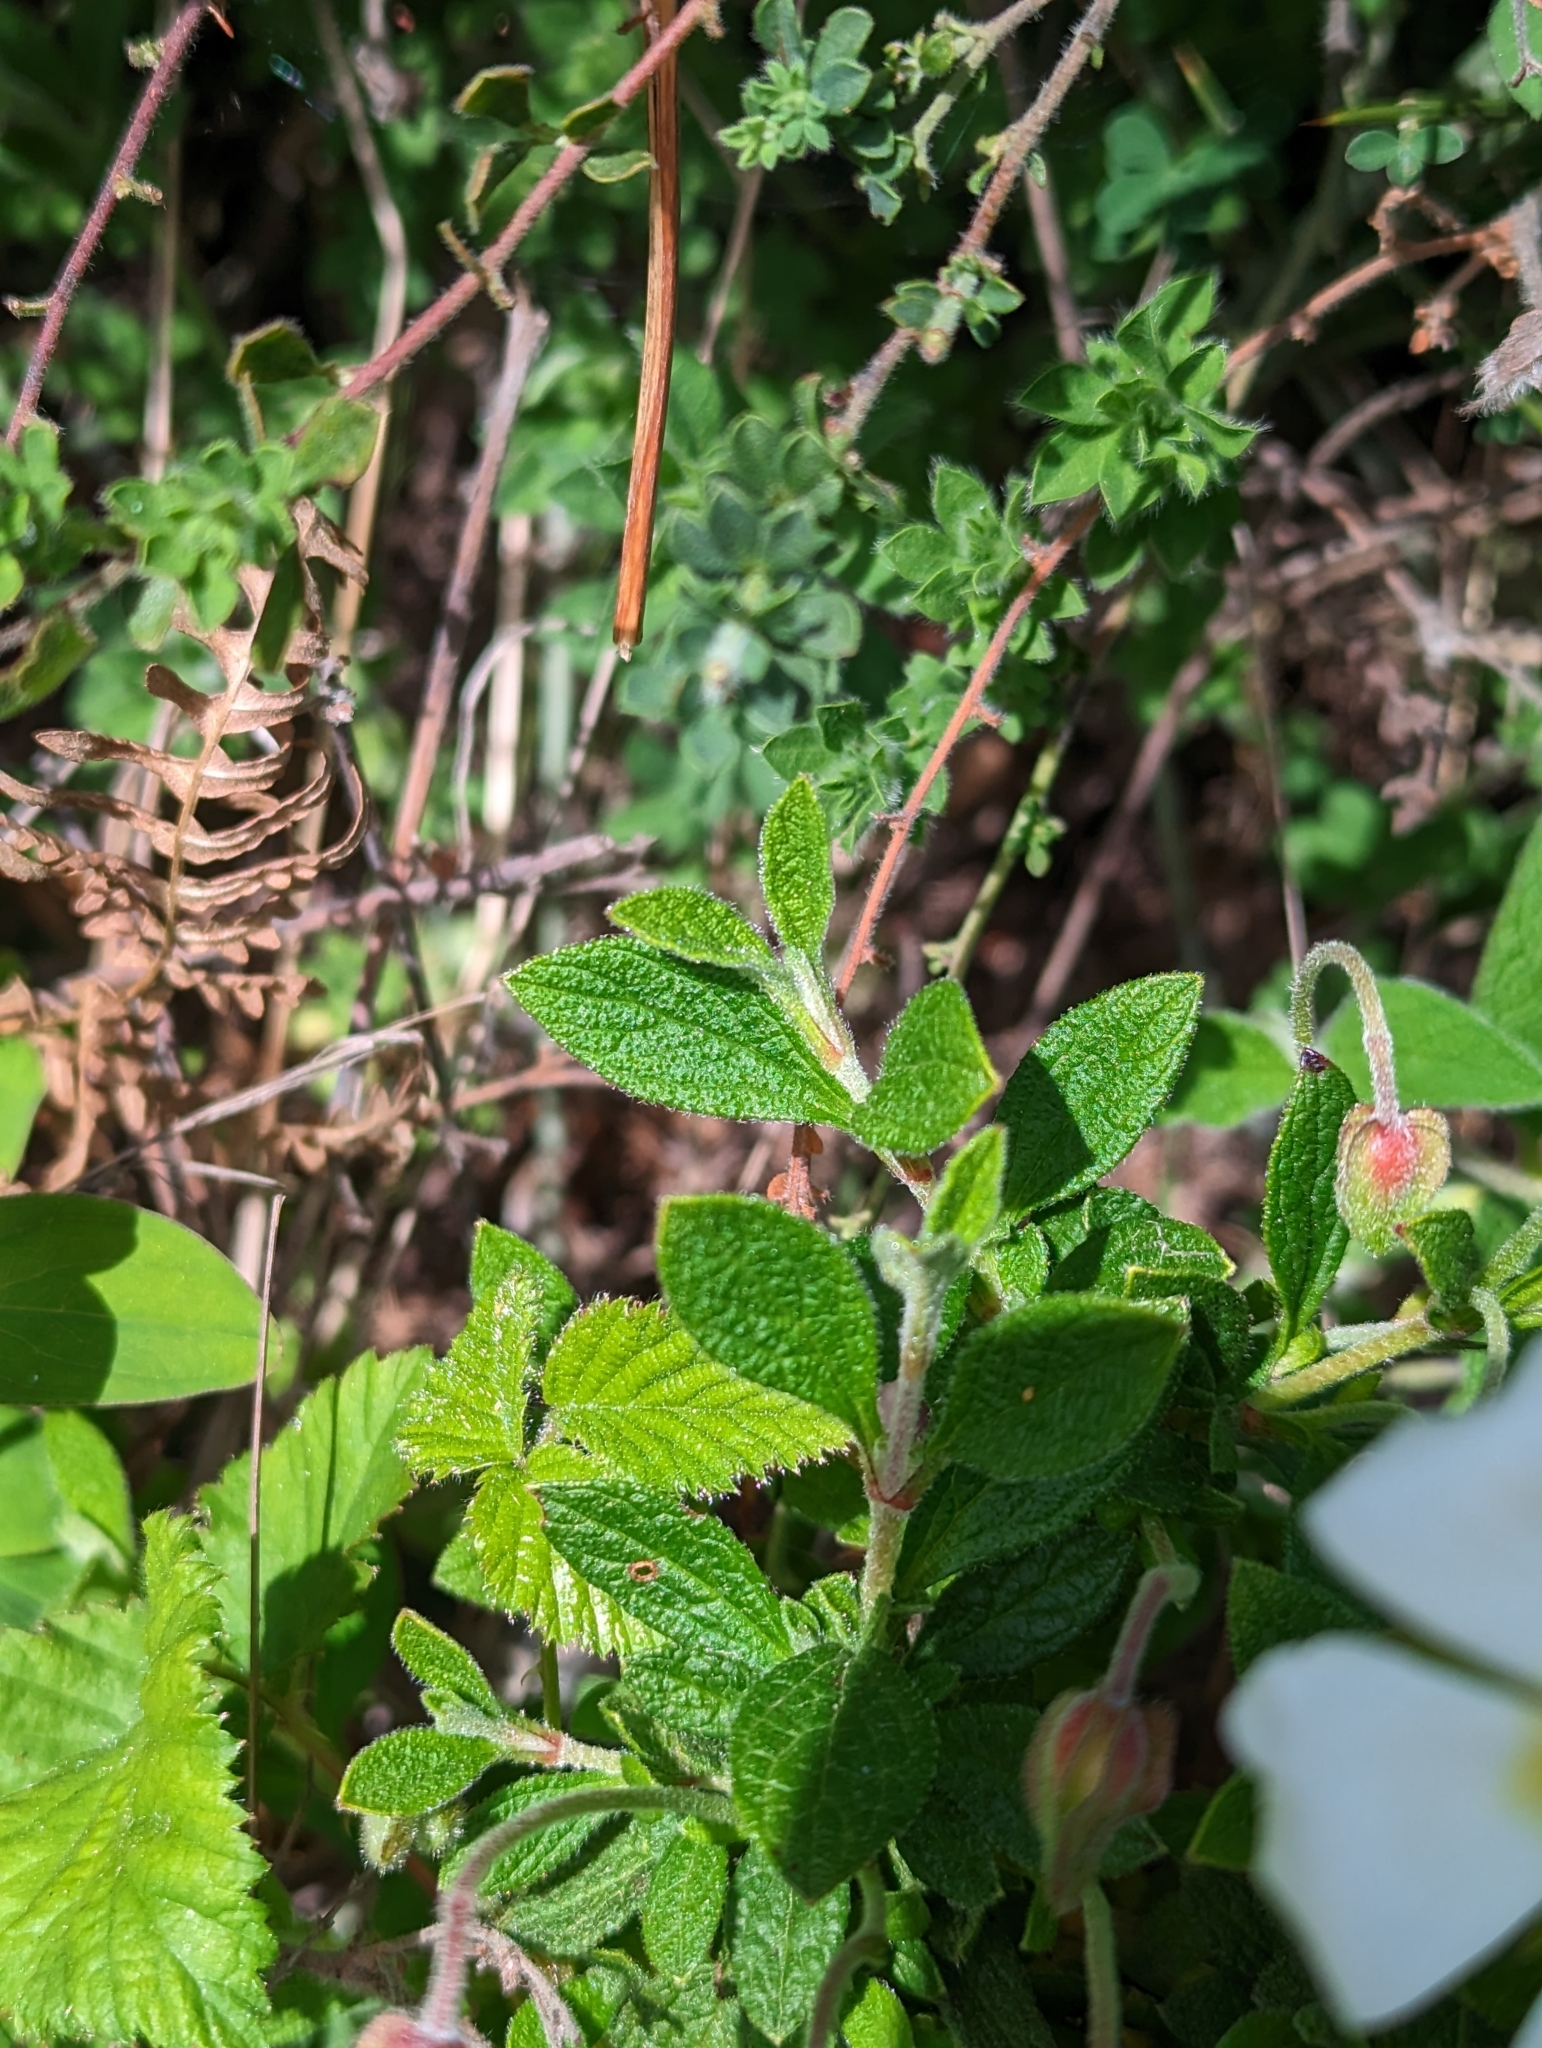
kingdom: Plantae
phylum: Tracheophyta
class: Magnoliopsida
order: Malvales
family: Cistaceae
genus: Cistus
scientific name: Cistus salviifolius
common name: Salvia cistus
